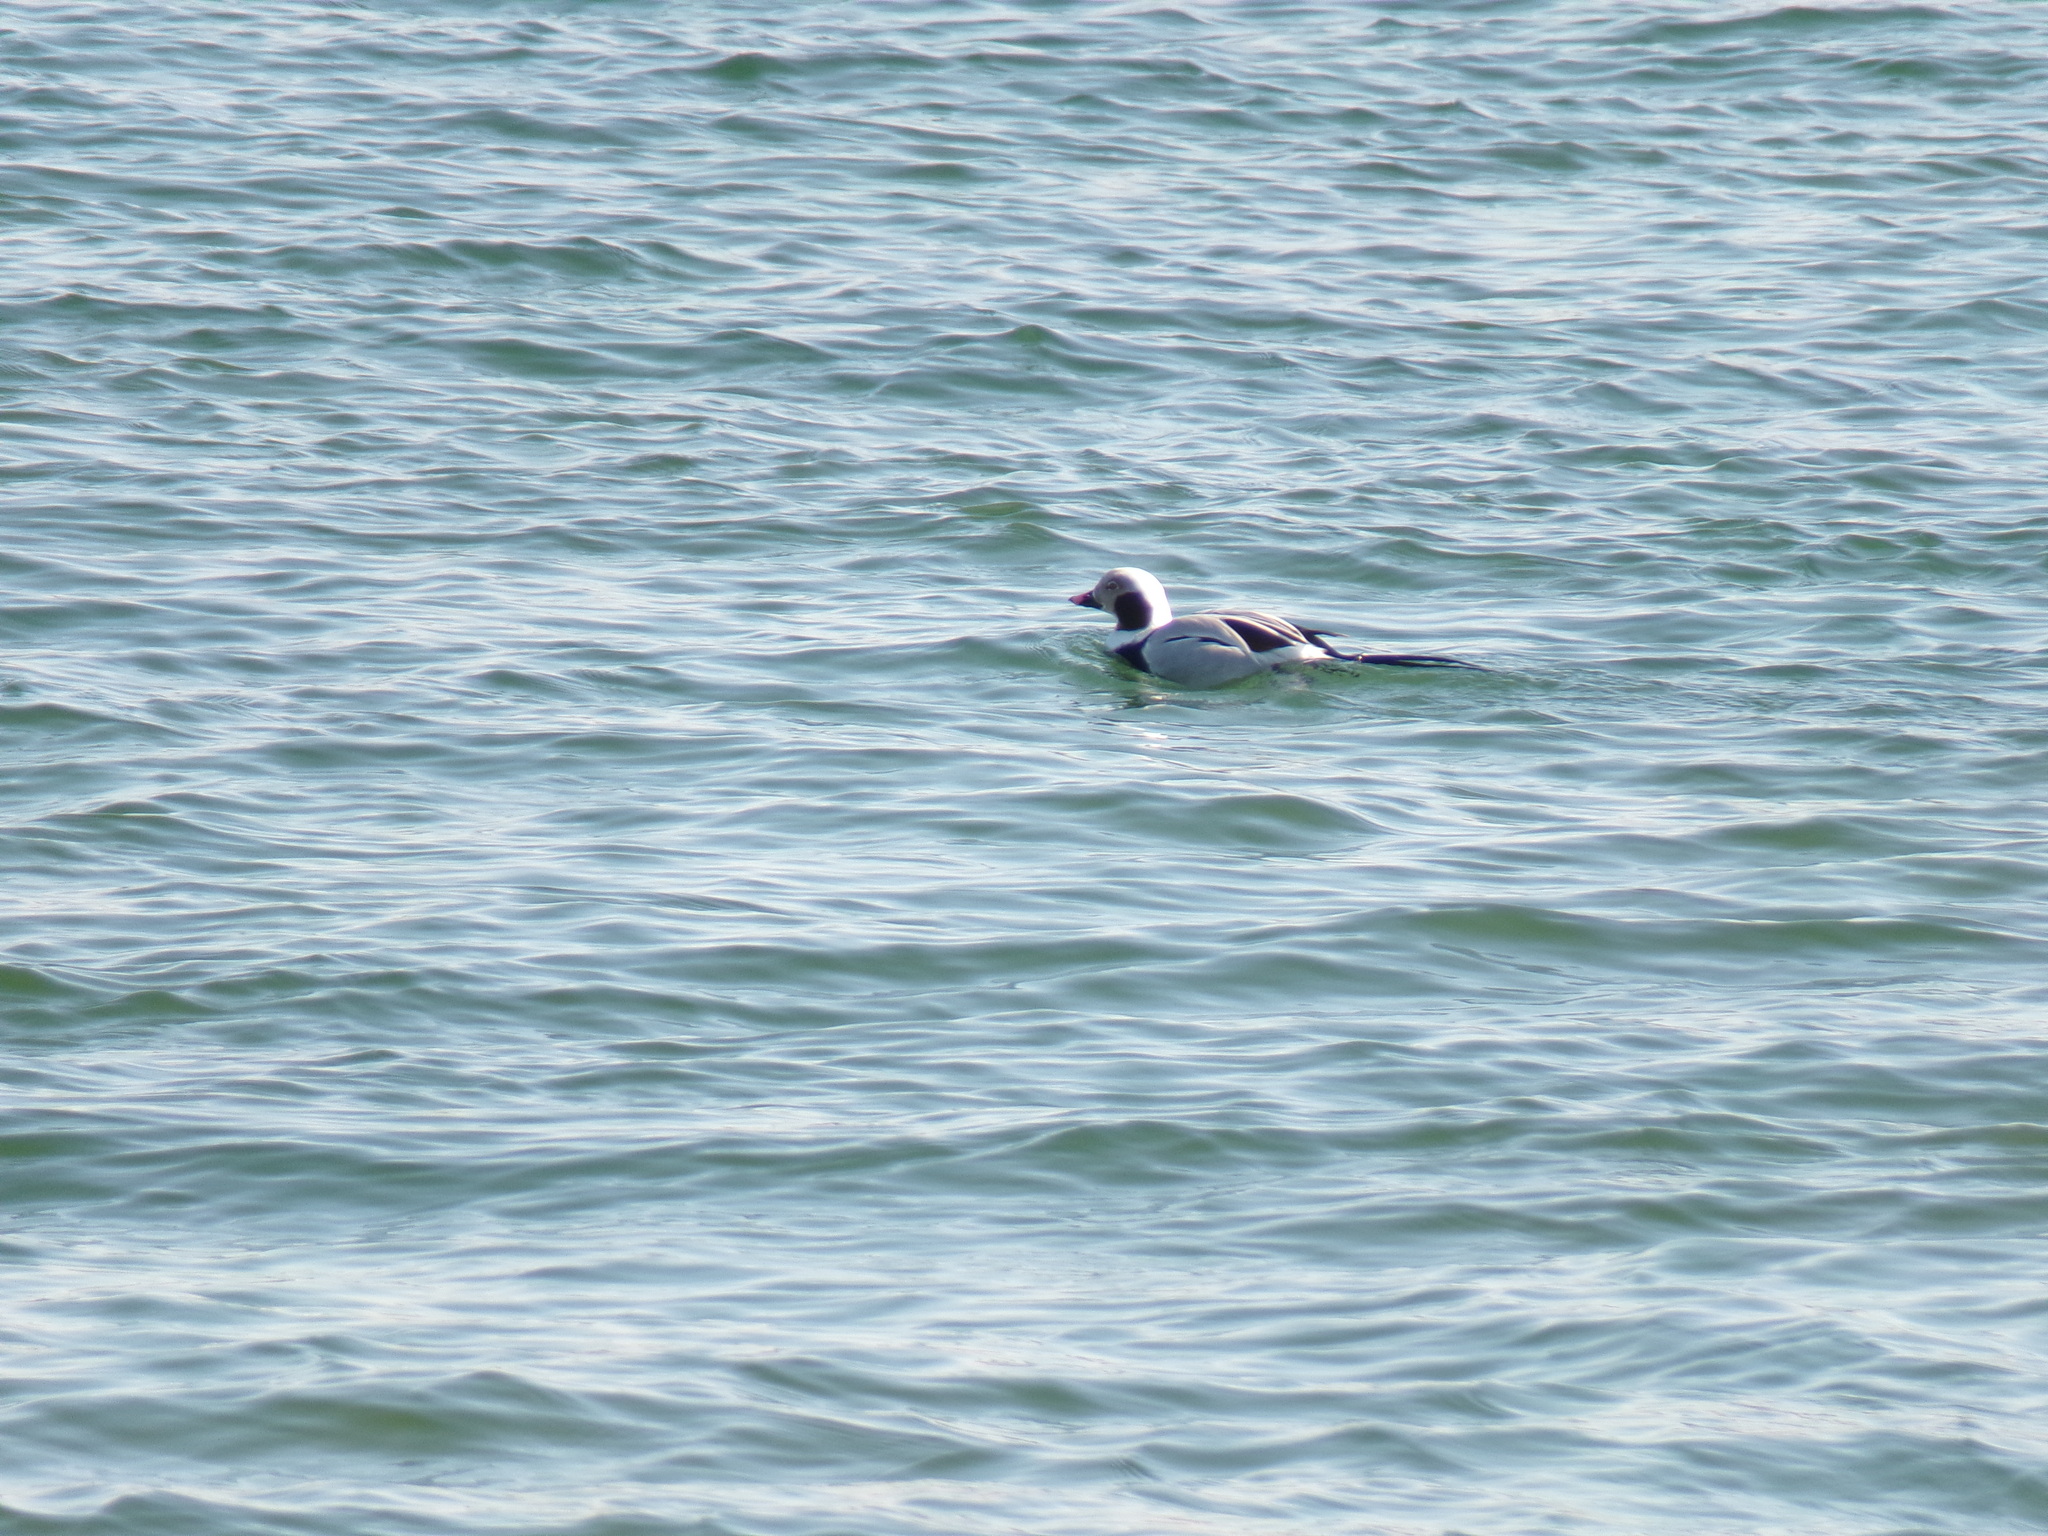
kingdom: Animalia
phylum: Chordata
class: Aves
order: Anseriformes
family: Anatidae
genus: Clangula
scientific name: Clangula hyemalis
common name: Long-tailed duck
